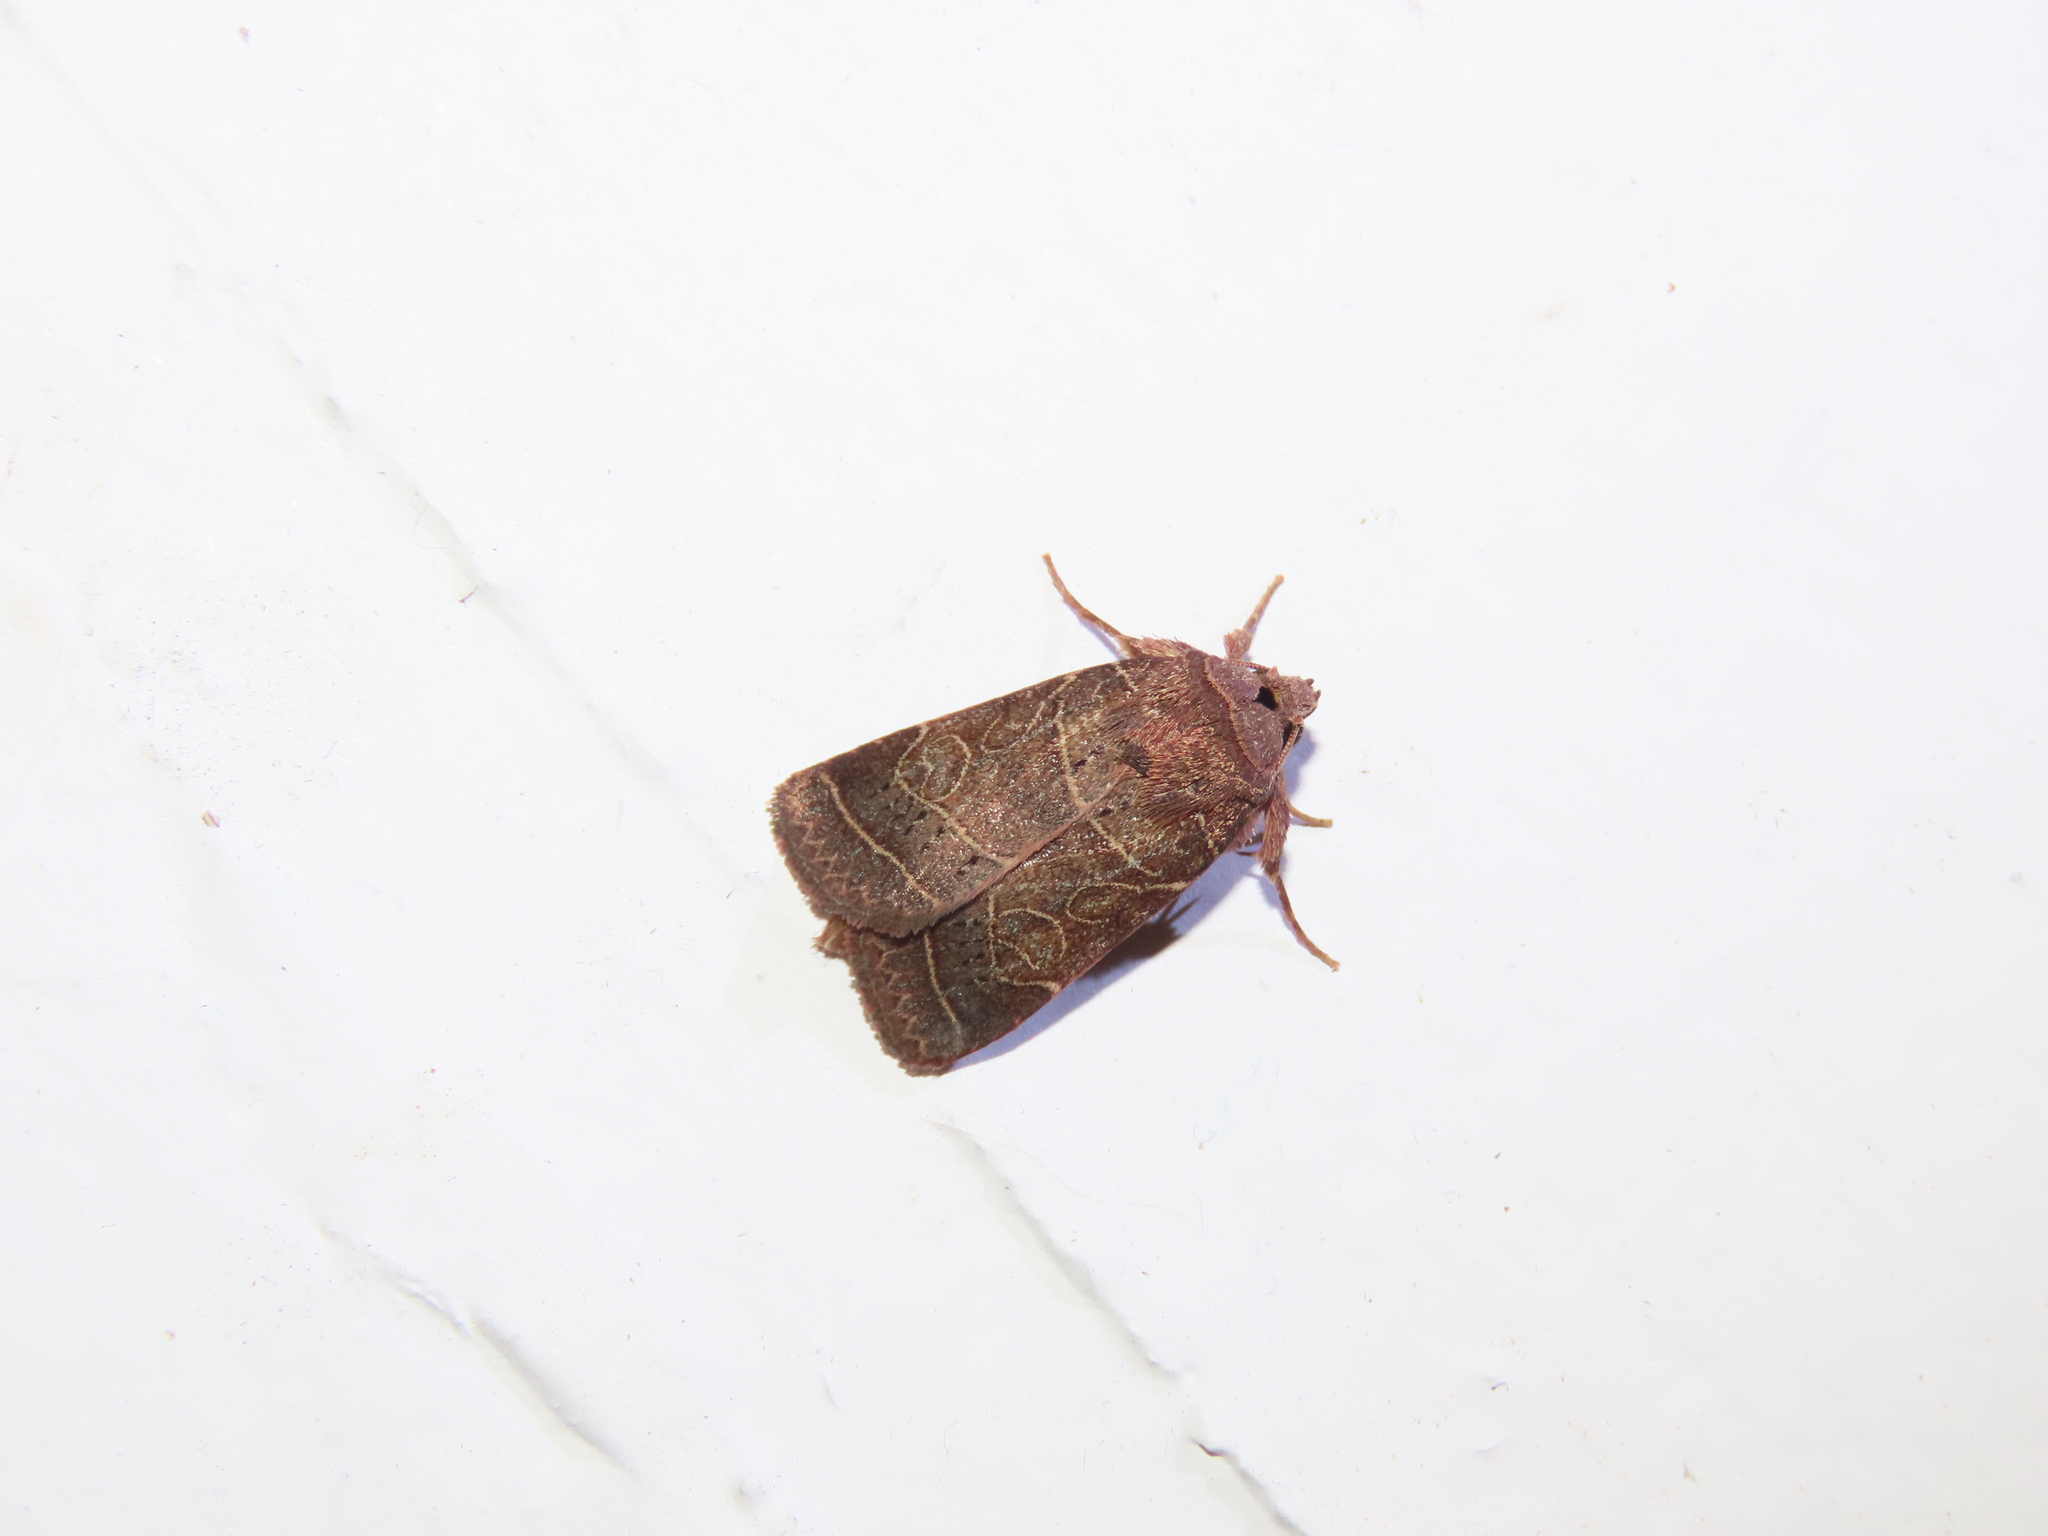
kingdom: Animalia
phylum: Arthropoda
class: Insecta
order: Lepidoptera
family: Noctuidae
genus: Orthodes
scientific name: Orthodes majuscula
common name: Rustic quaker
